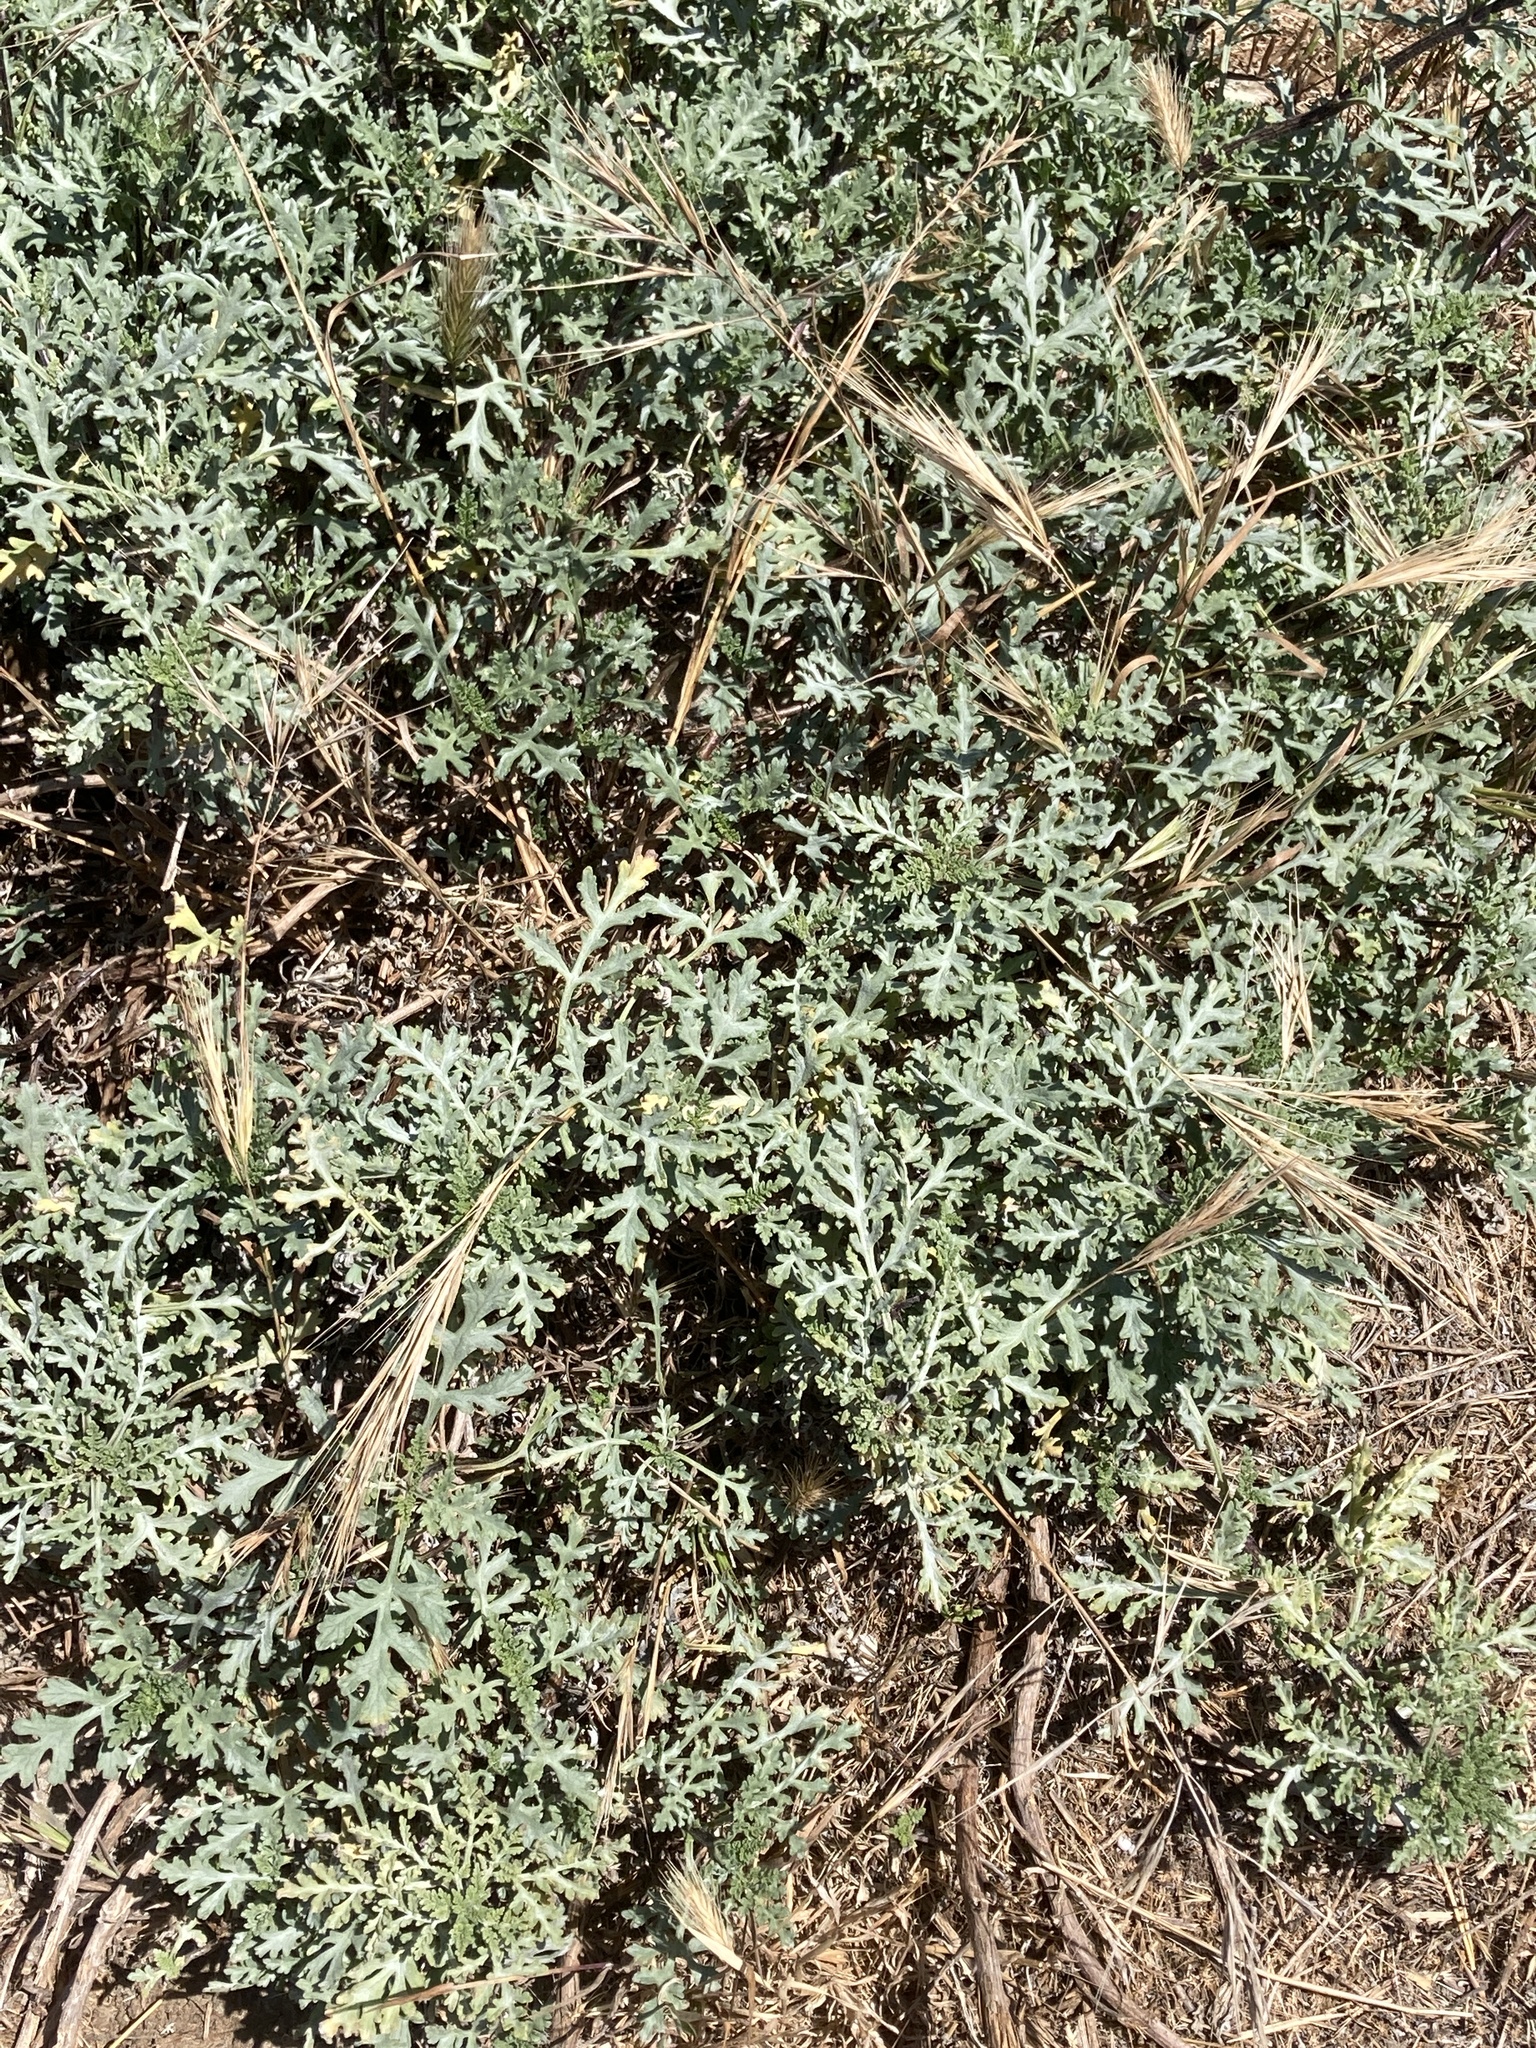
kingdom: Plantae
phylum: Tracheophyta
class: Magnoliopsida
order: Asterales
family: Asteraceae
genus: Ambrosia
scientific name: Ambrosia chamissonis
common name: Beachbur
